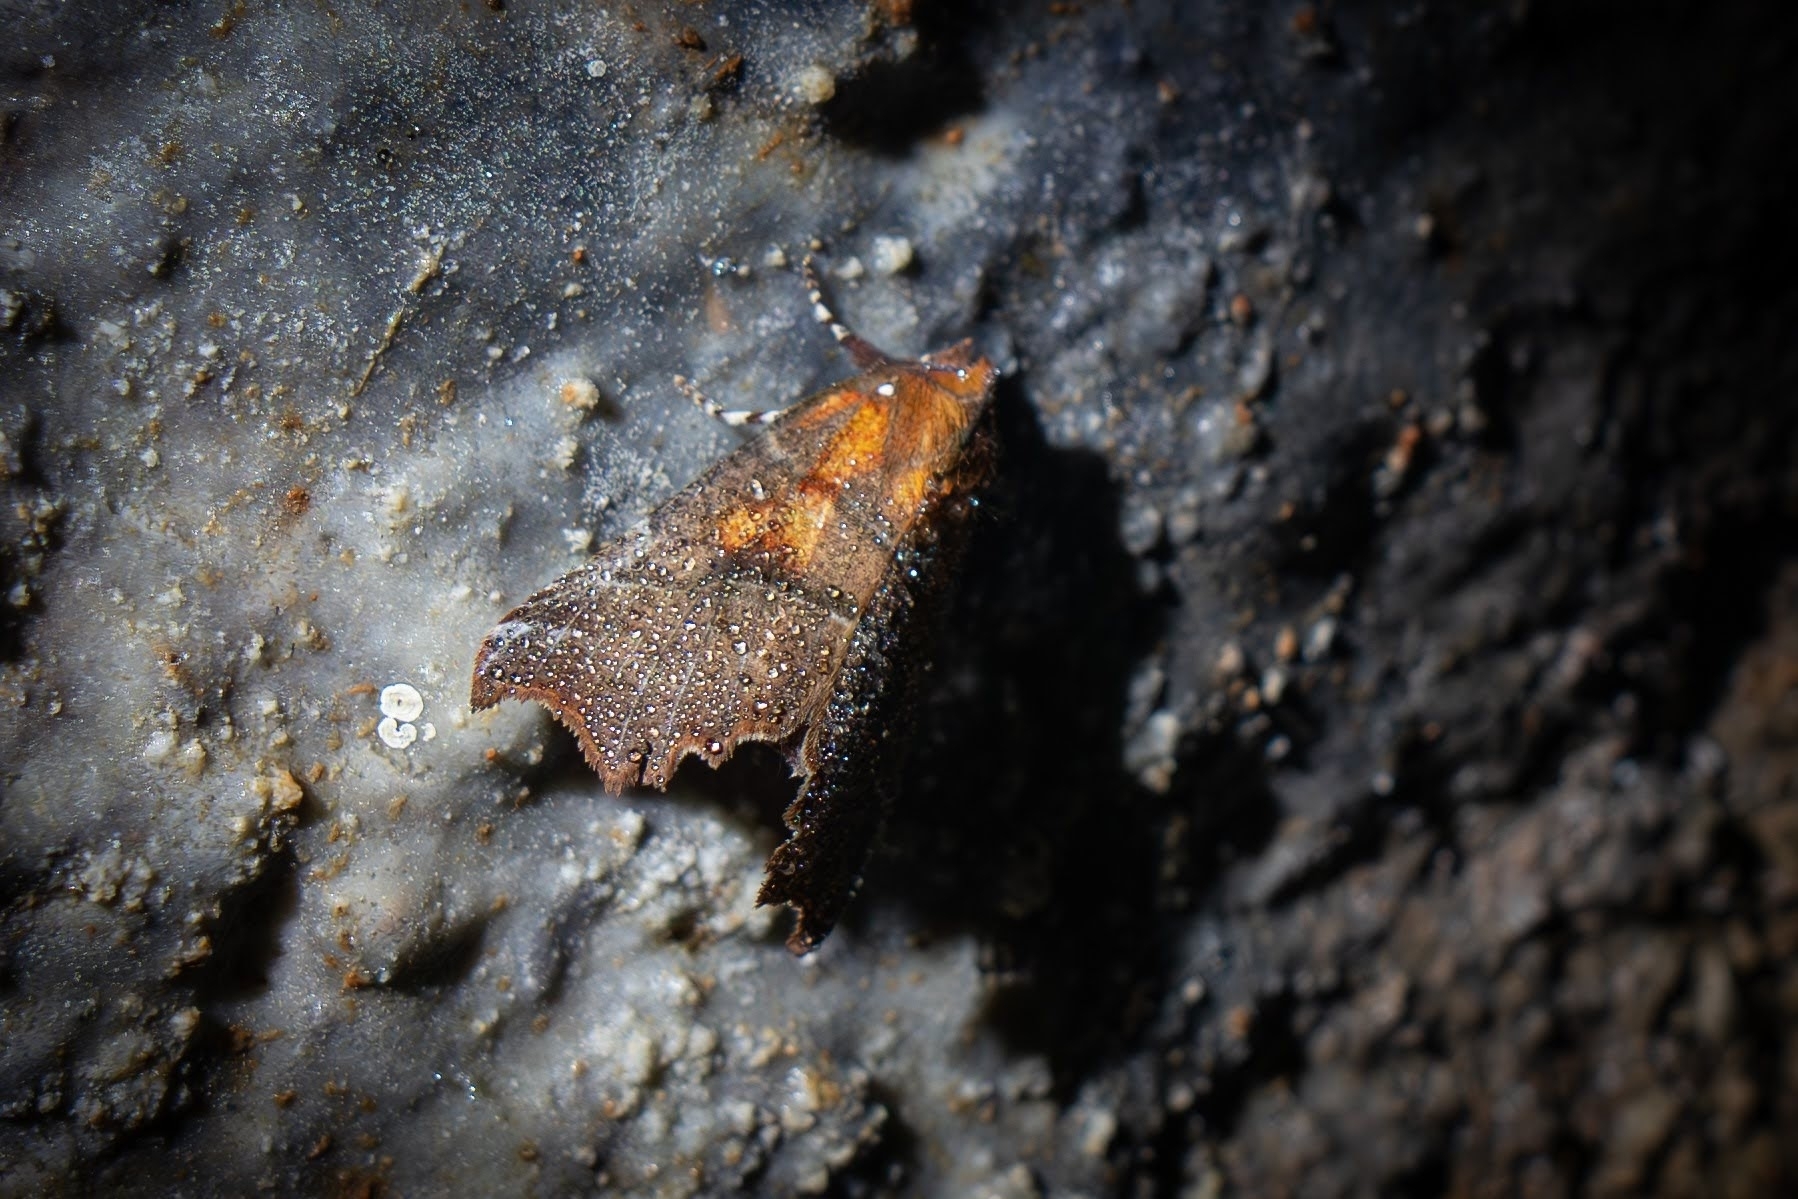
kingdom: Animalia
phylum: Arthropoda
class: Insecta
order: Lepidoptera
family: Erebidae
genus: Scoliopteryx
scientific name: Scoliopteryx libatrix
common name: Herald
